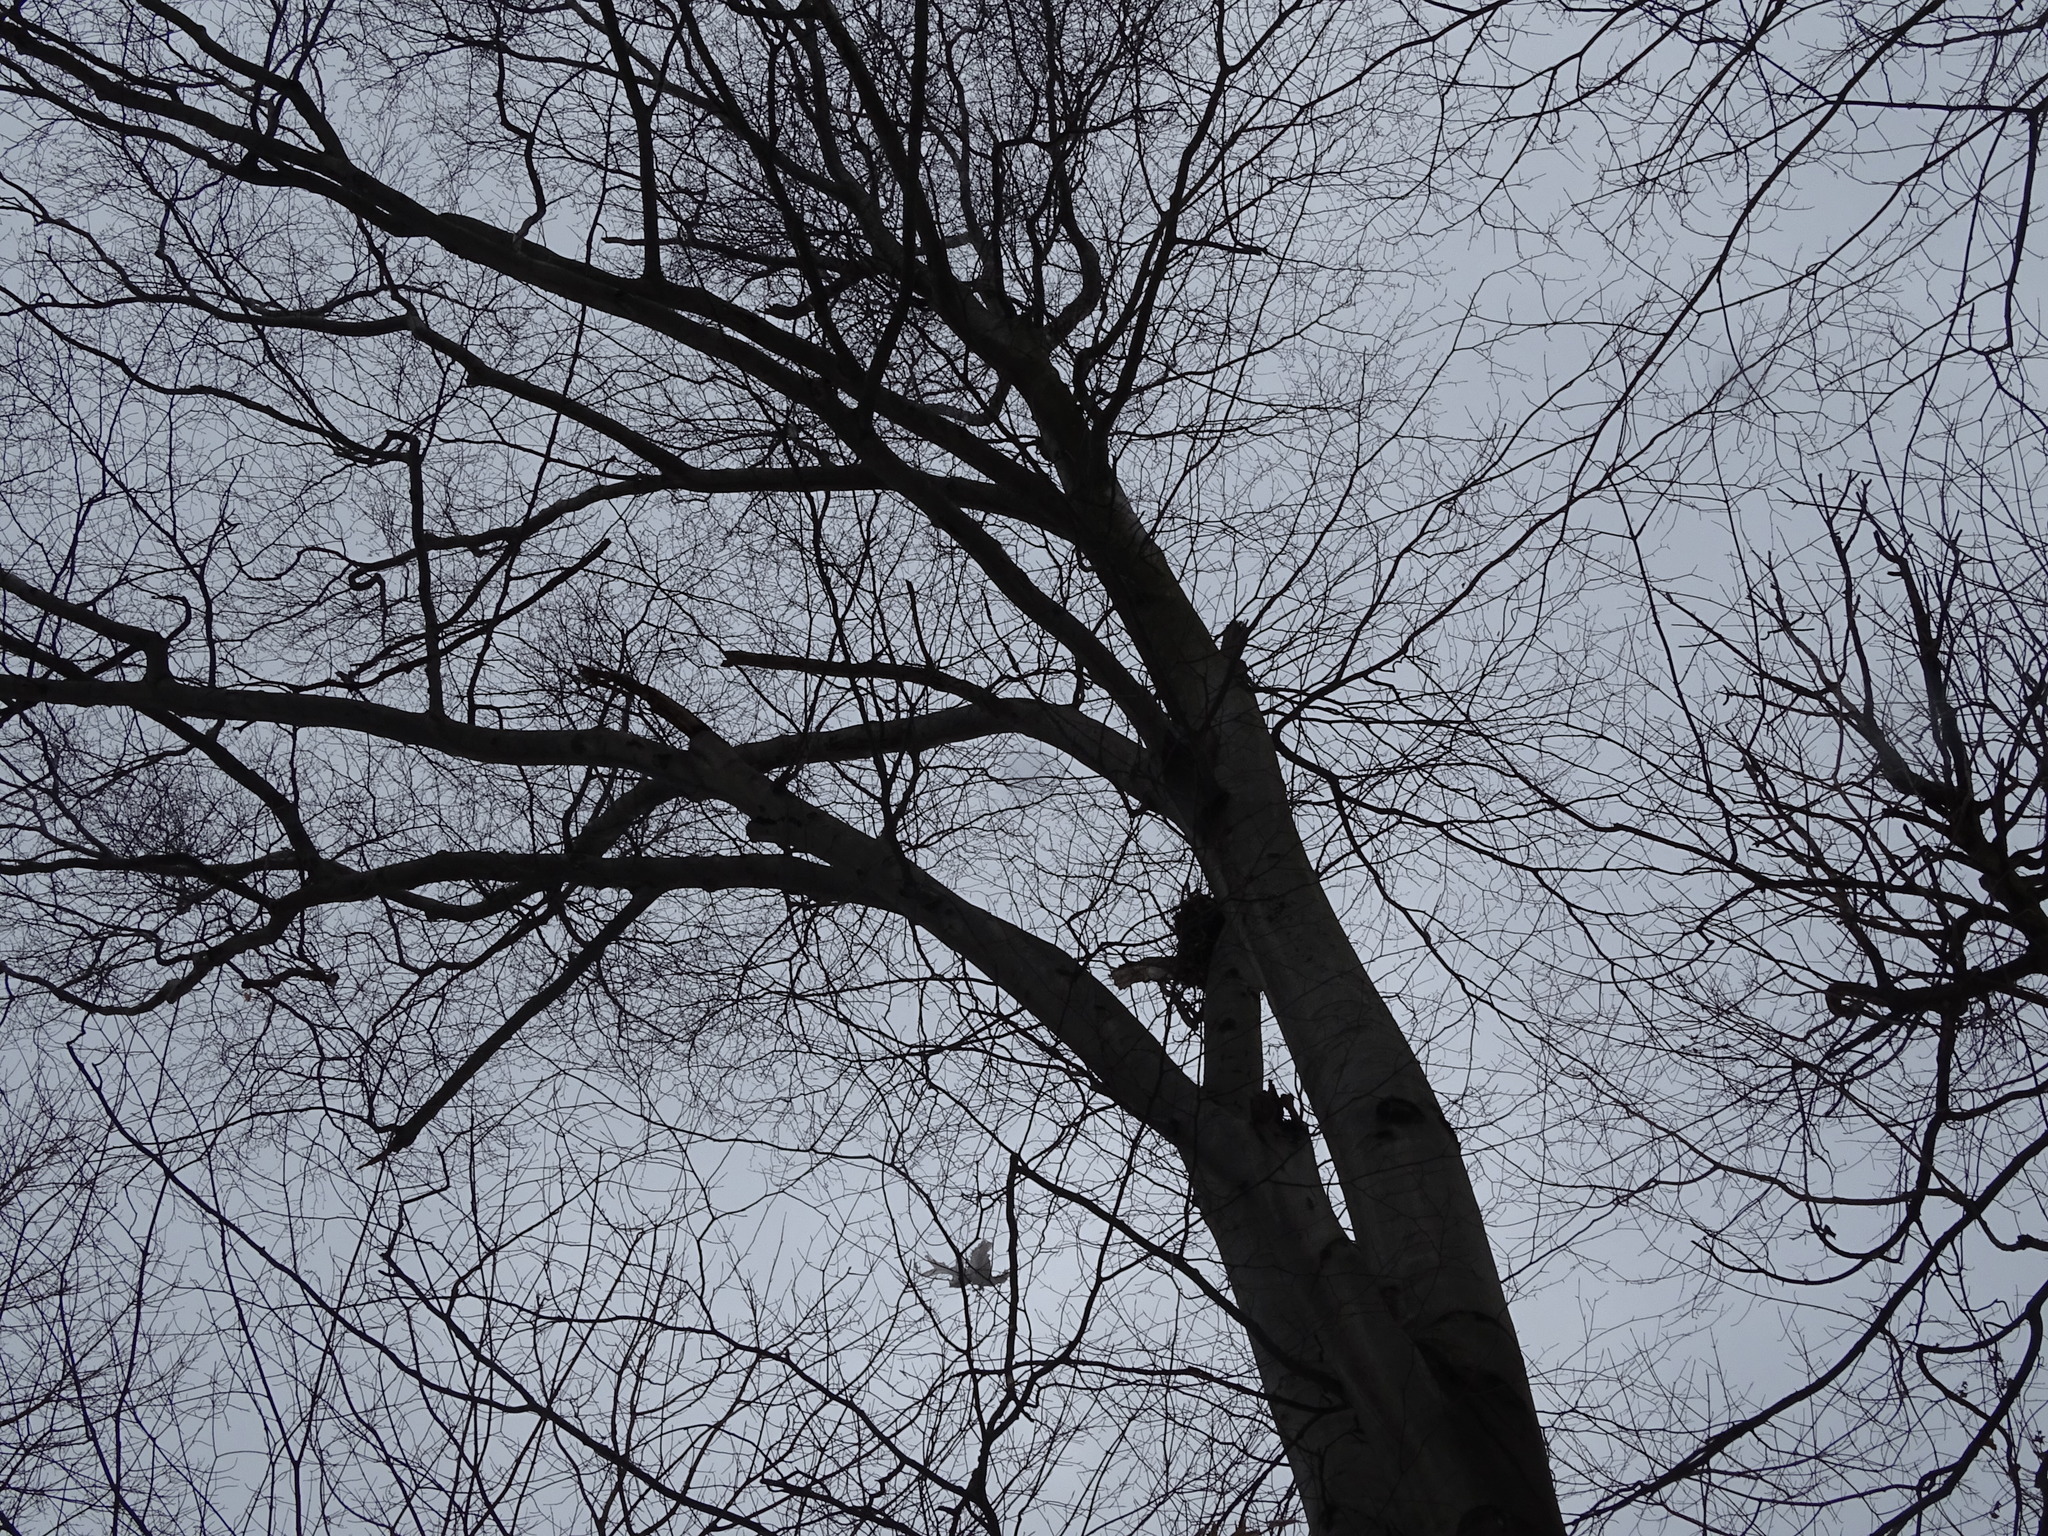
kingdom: Plantae
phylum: Tracheophyta
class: Magnoliopsida
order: Fagales
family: Fagaceae
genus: Fagus
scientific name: Fagus grandifolia
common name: American beech
